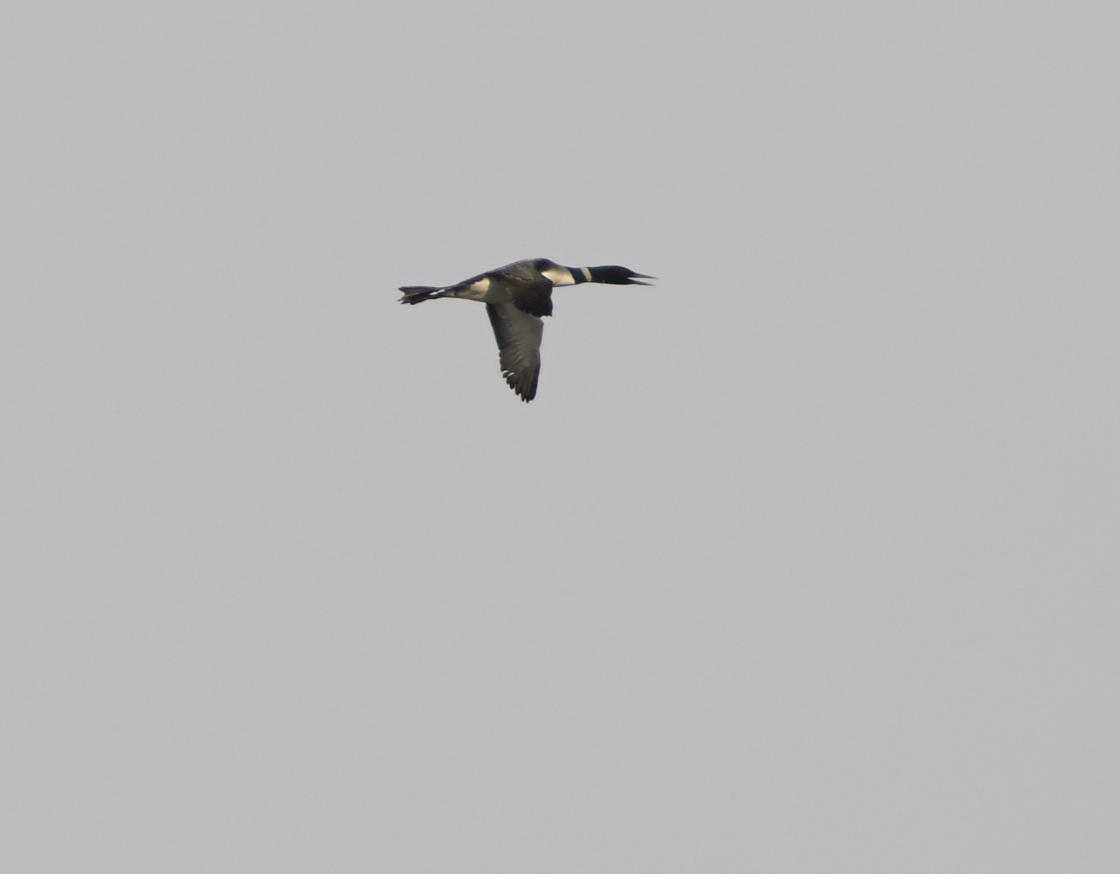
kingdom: Animalia
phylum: Chordata
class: Aves
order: Gaviiformes
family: Gaviidae
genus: Gavia
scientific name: Gavia immer
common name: Common loon
